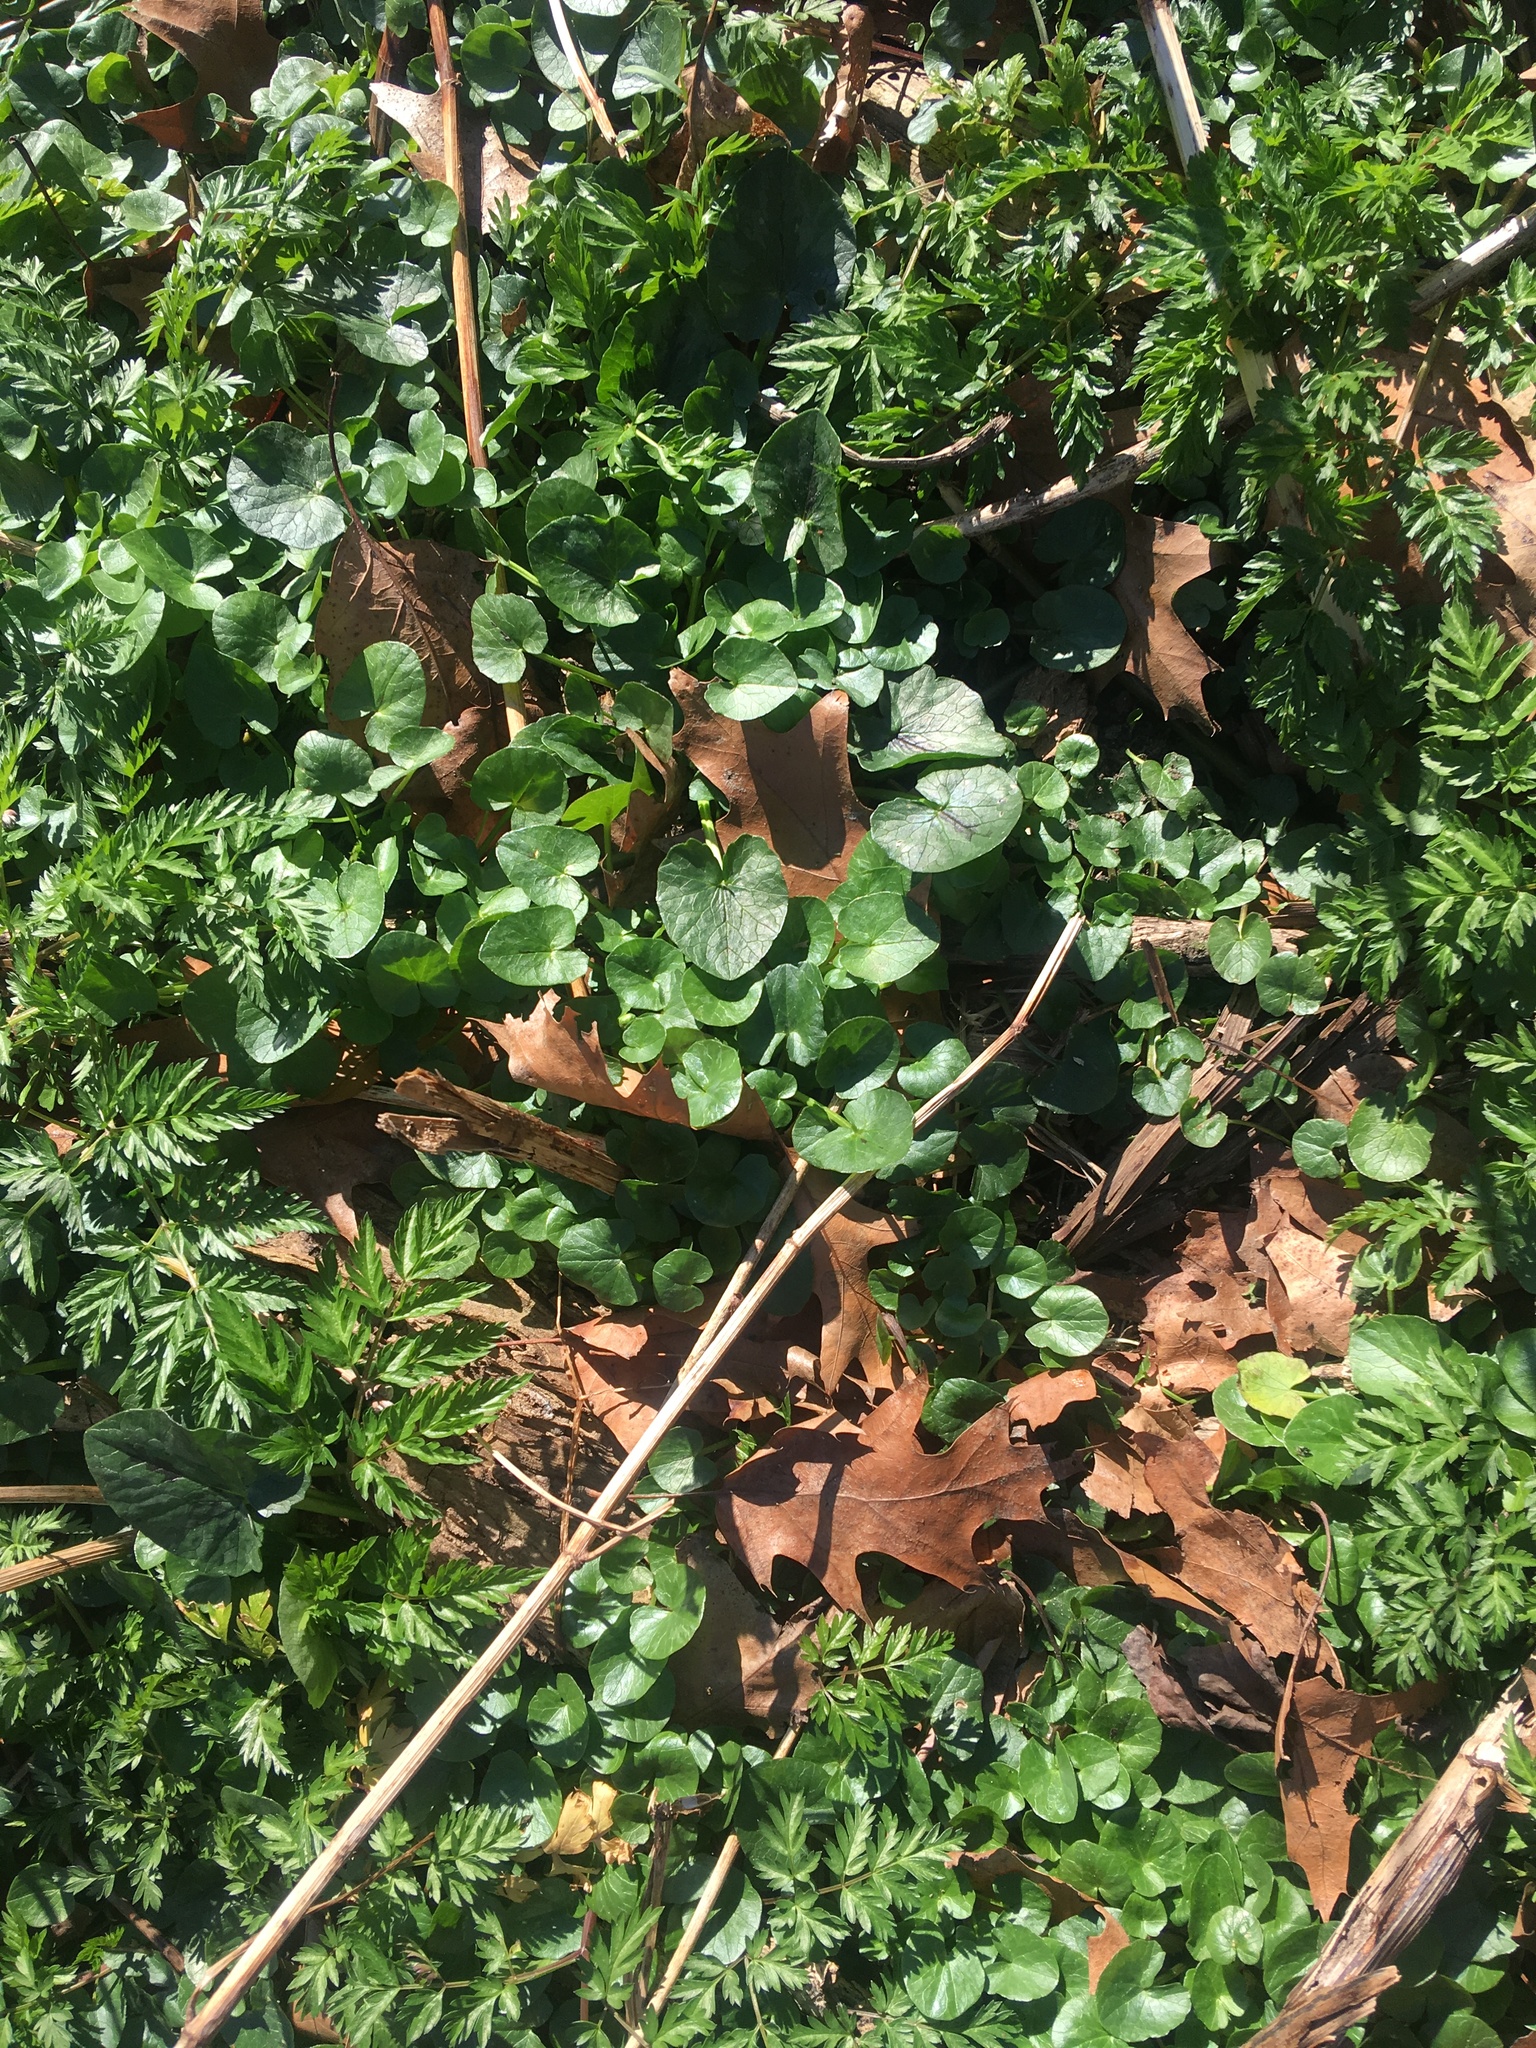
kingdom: Plantae
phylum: Tracheophyta
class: Magnoliopsida
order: Ranunculales
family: Ranunculaceae
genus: Ficaria
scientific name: Ficaria verna
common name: Lesser celandine
